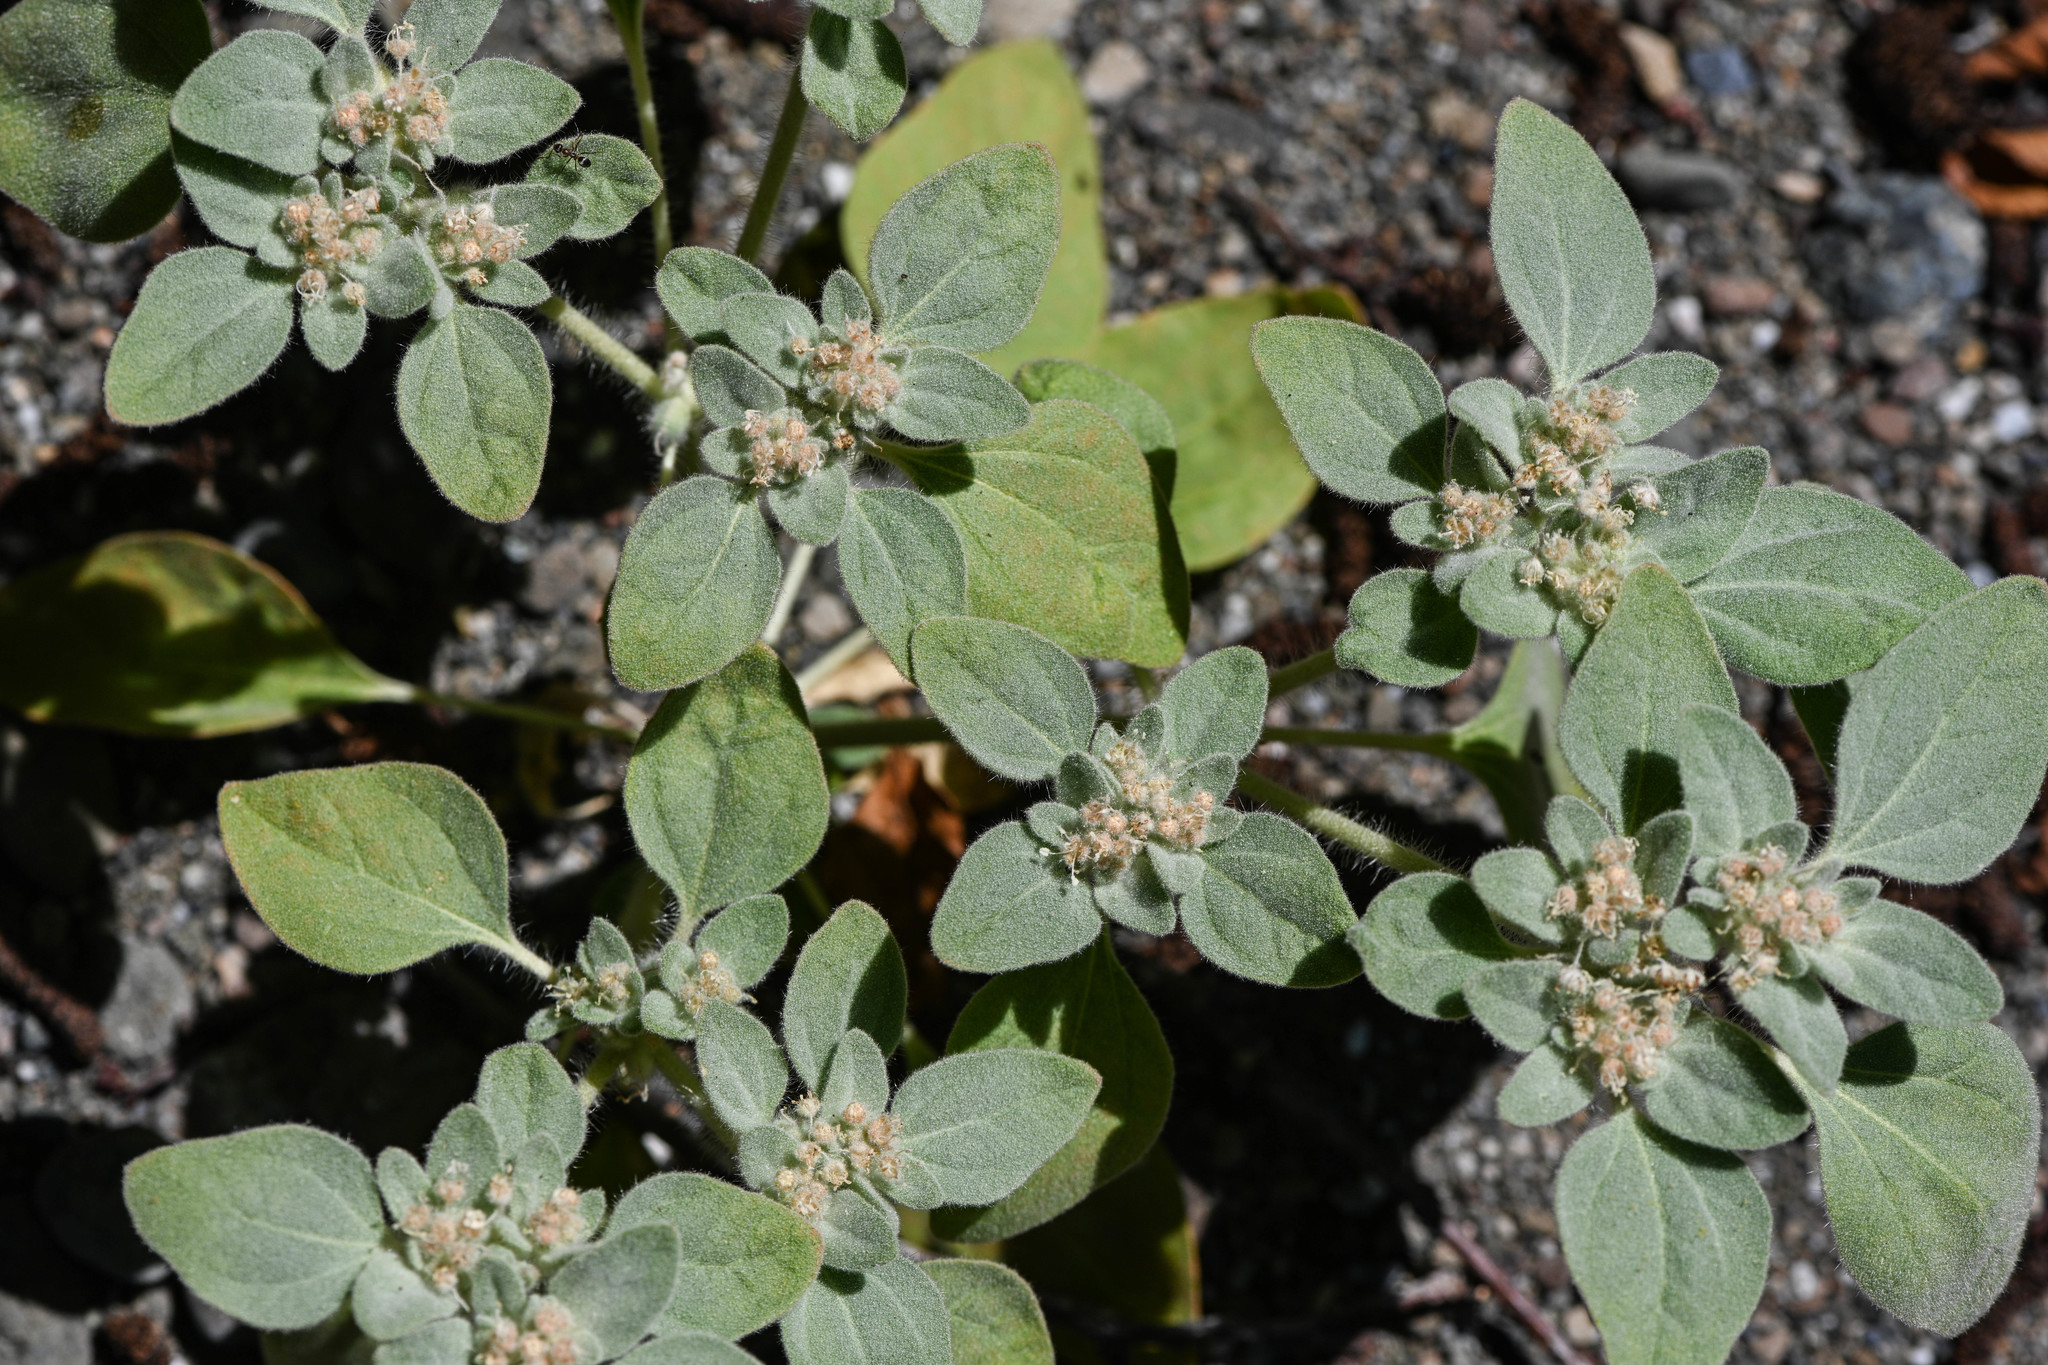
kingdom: Plantae
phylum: Tracheophyta
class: Magnoliopsida
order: Malpighiales
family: Euphorbiaceae
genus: Croton
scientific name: Croton setiger
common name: Dove weed
